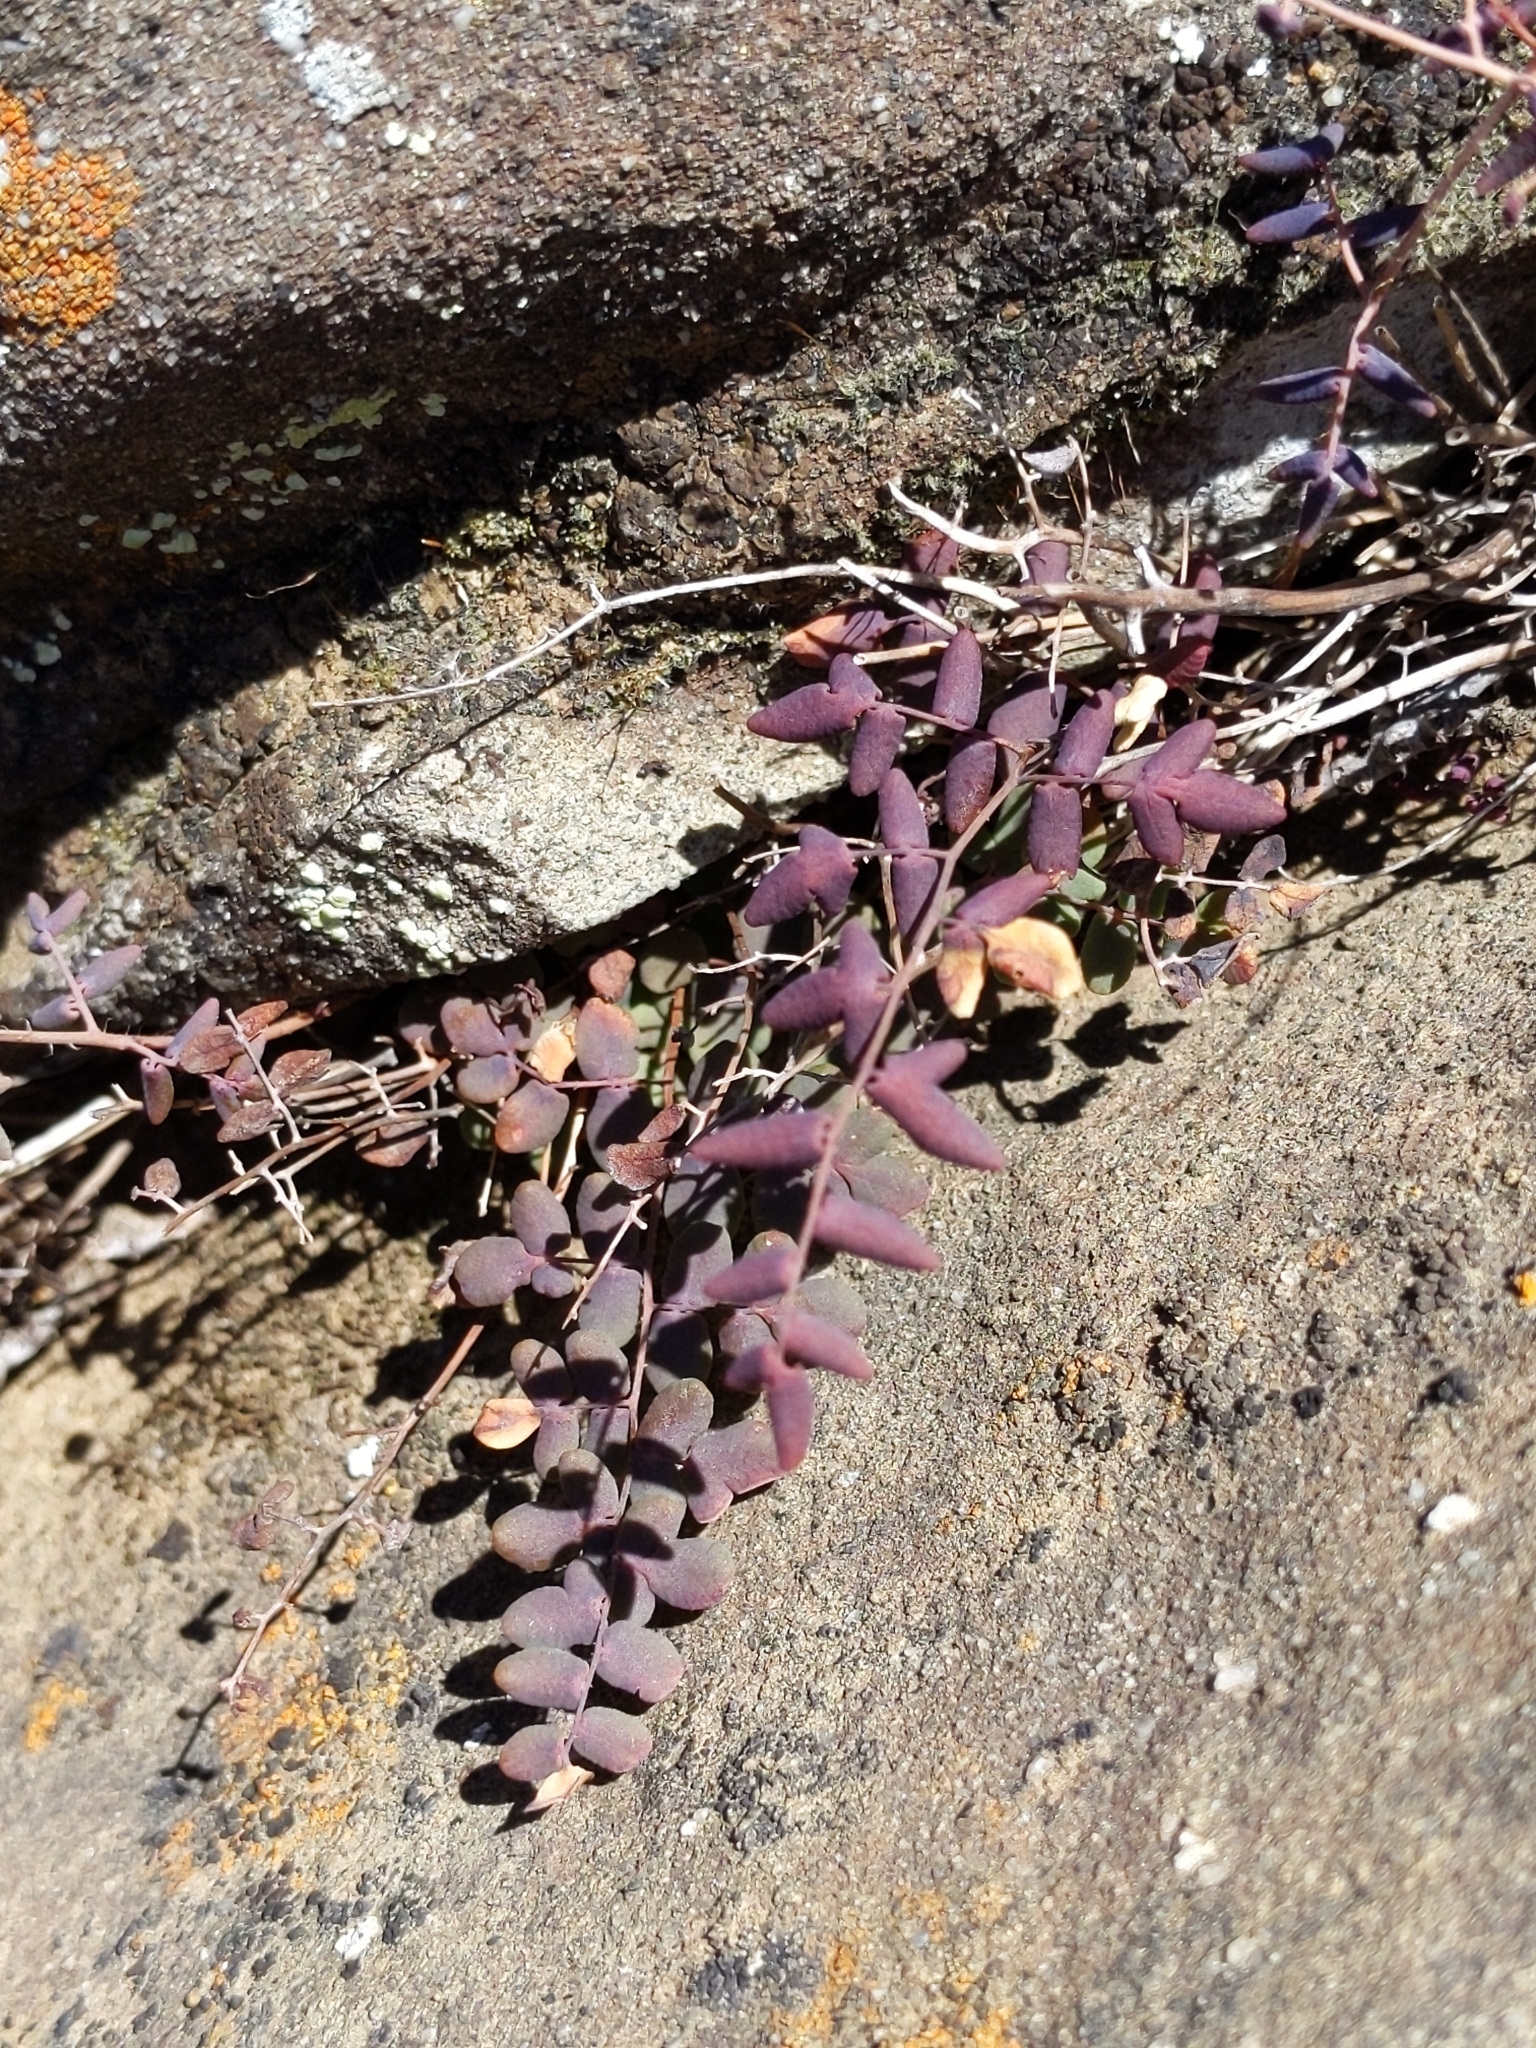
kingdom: Plantae
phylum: Tracheophyta
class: Polypodiopsida
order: Polypodiales
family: Pteridaceae
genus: Pellaea
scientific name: Pellaea andromedifolia
